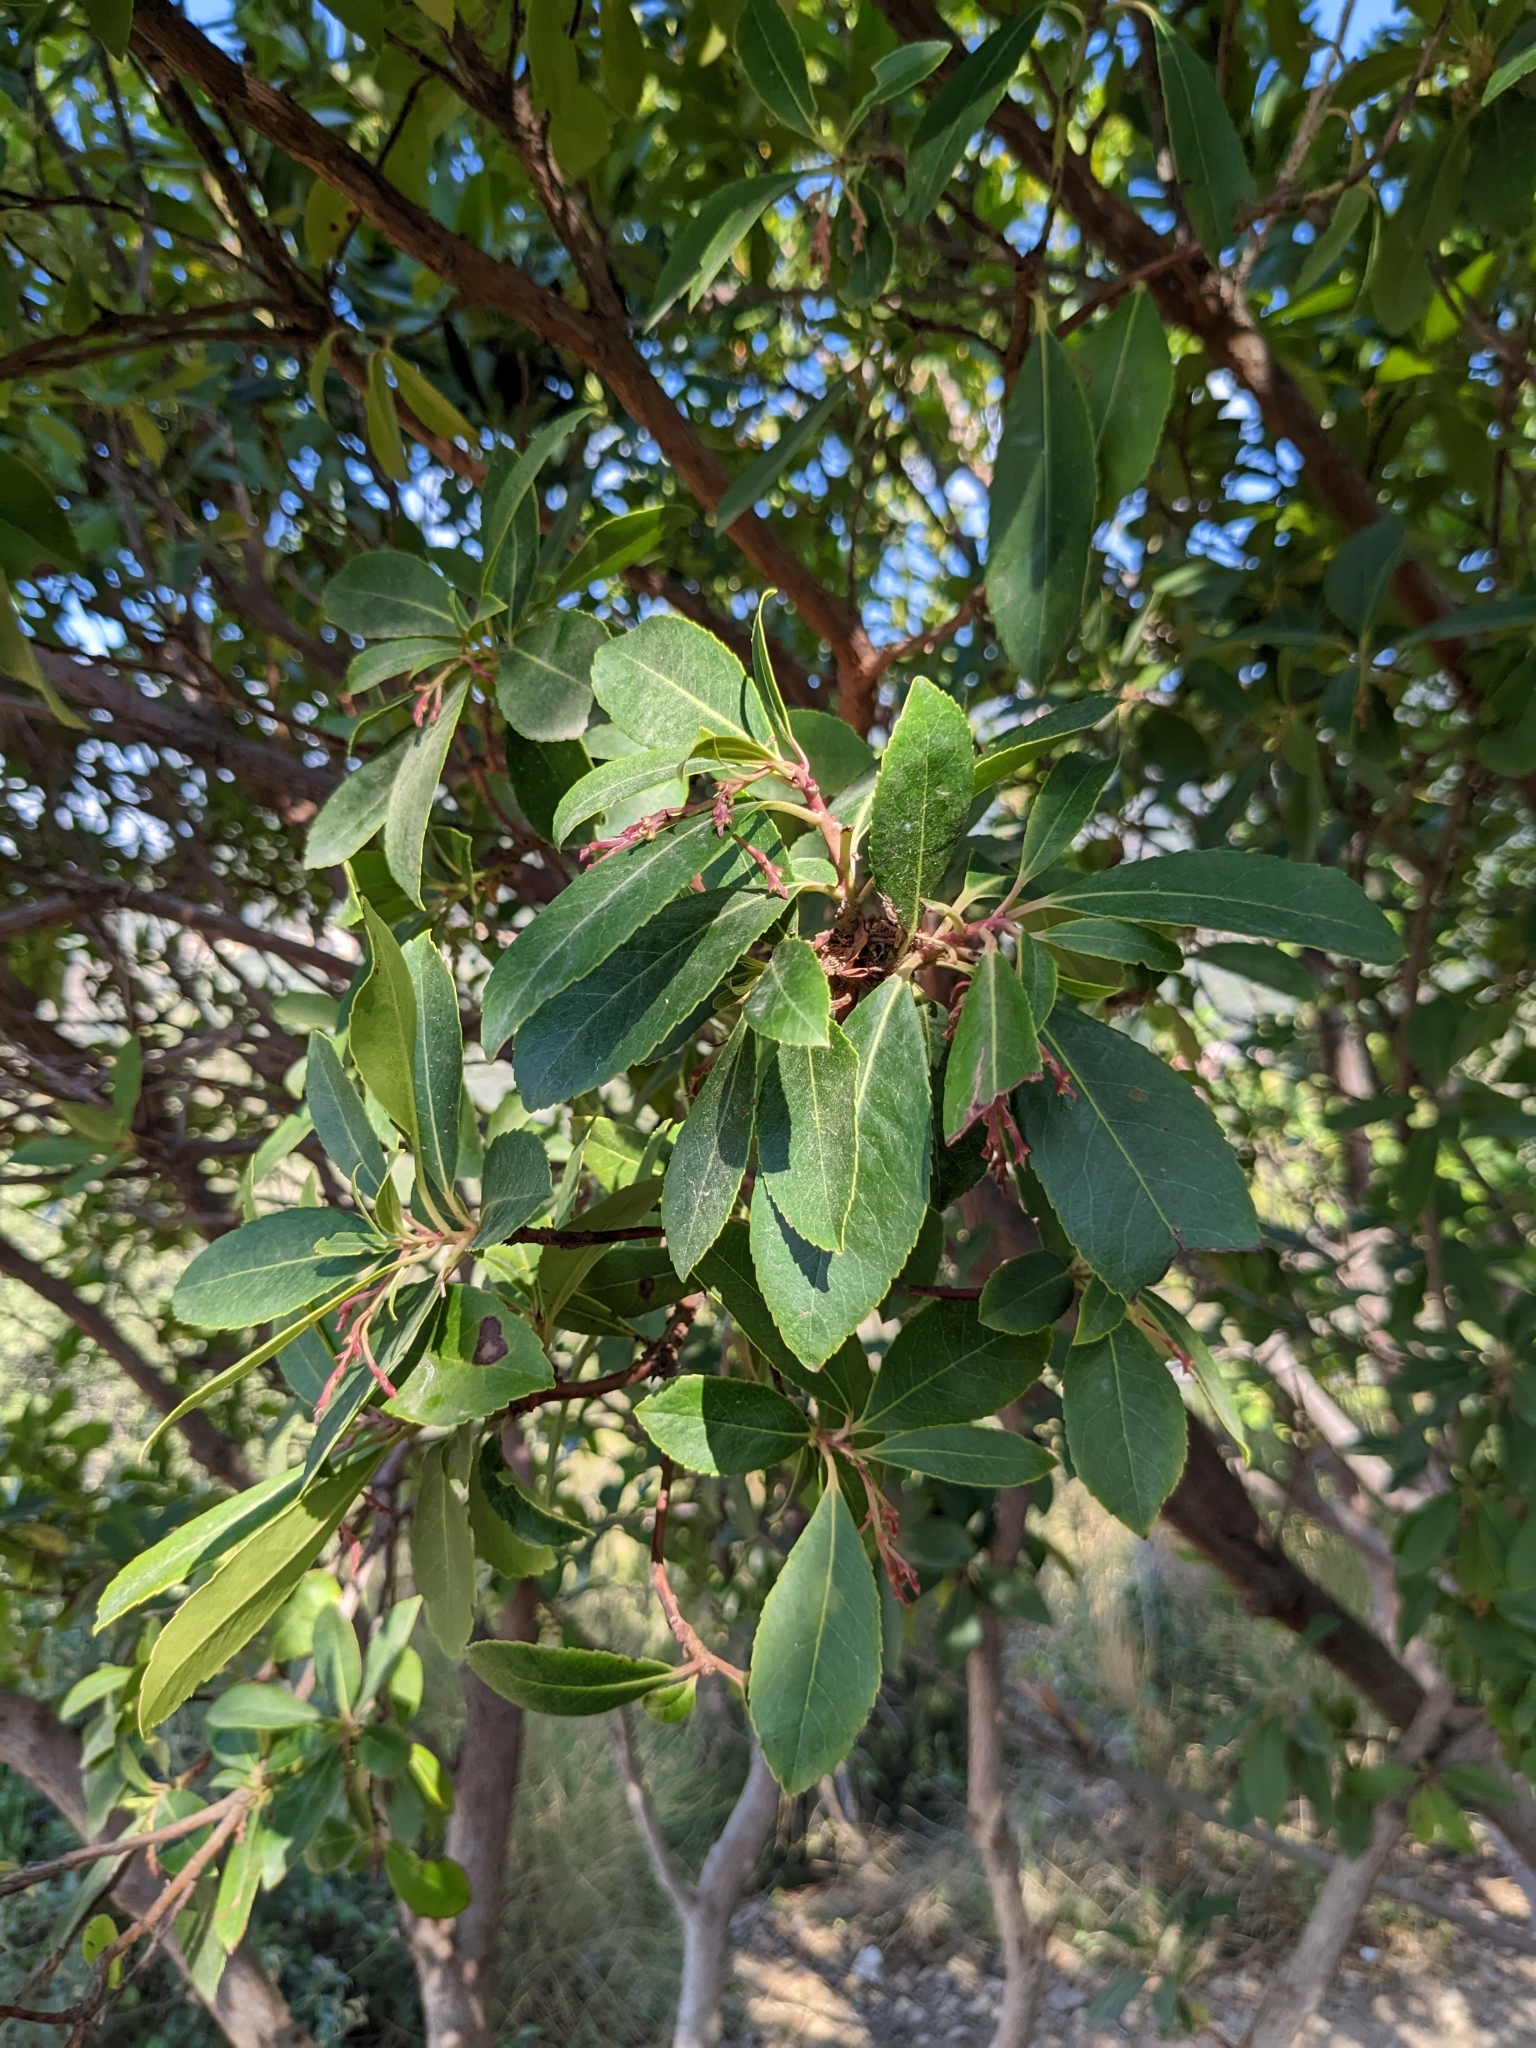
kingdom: Plantae
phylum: Tracheophyta
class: Magnoliopsida
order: Ericales
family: Ericaceae
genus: Arbutus
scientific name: Arbutus unedo
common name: Strawberry-tree
